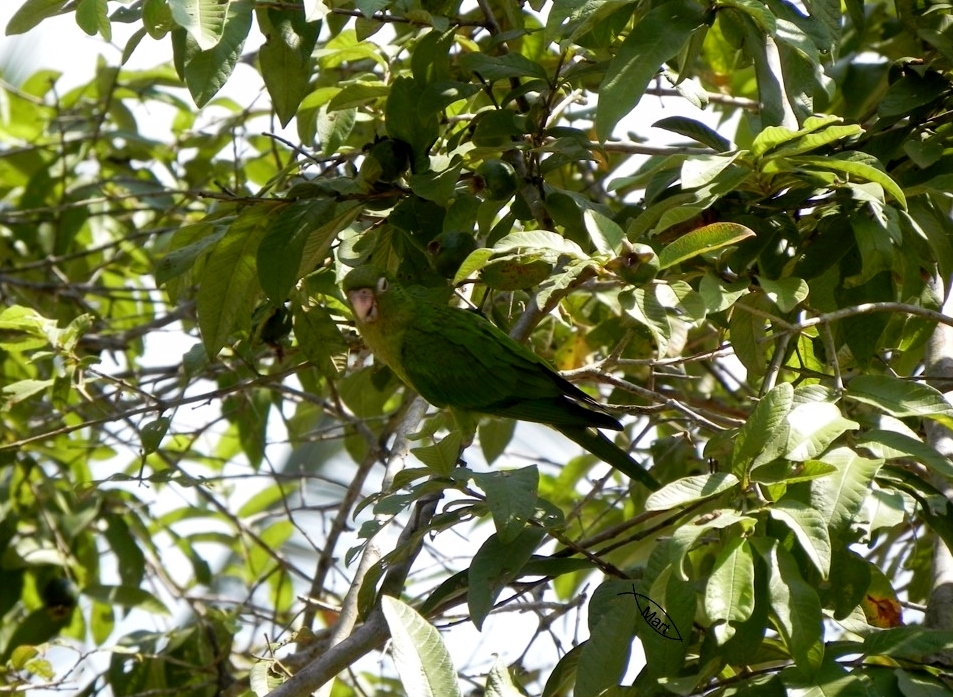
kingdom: Animalia
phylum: Chordata
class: Aves
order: Psittaciformes
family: Psittacidae
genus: Aratinga
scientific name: Aratinga nana
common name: Olive-throated parakeet
